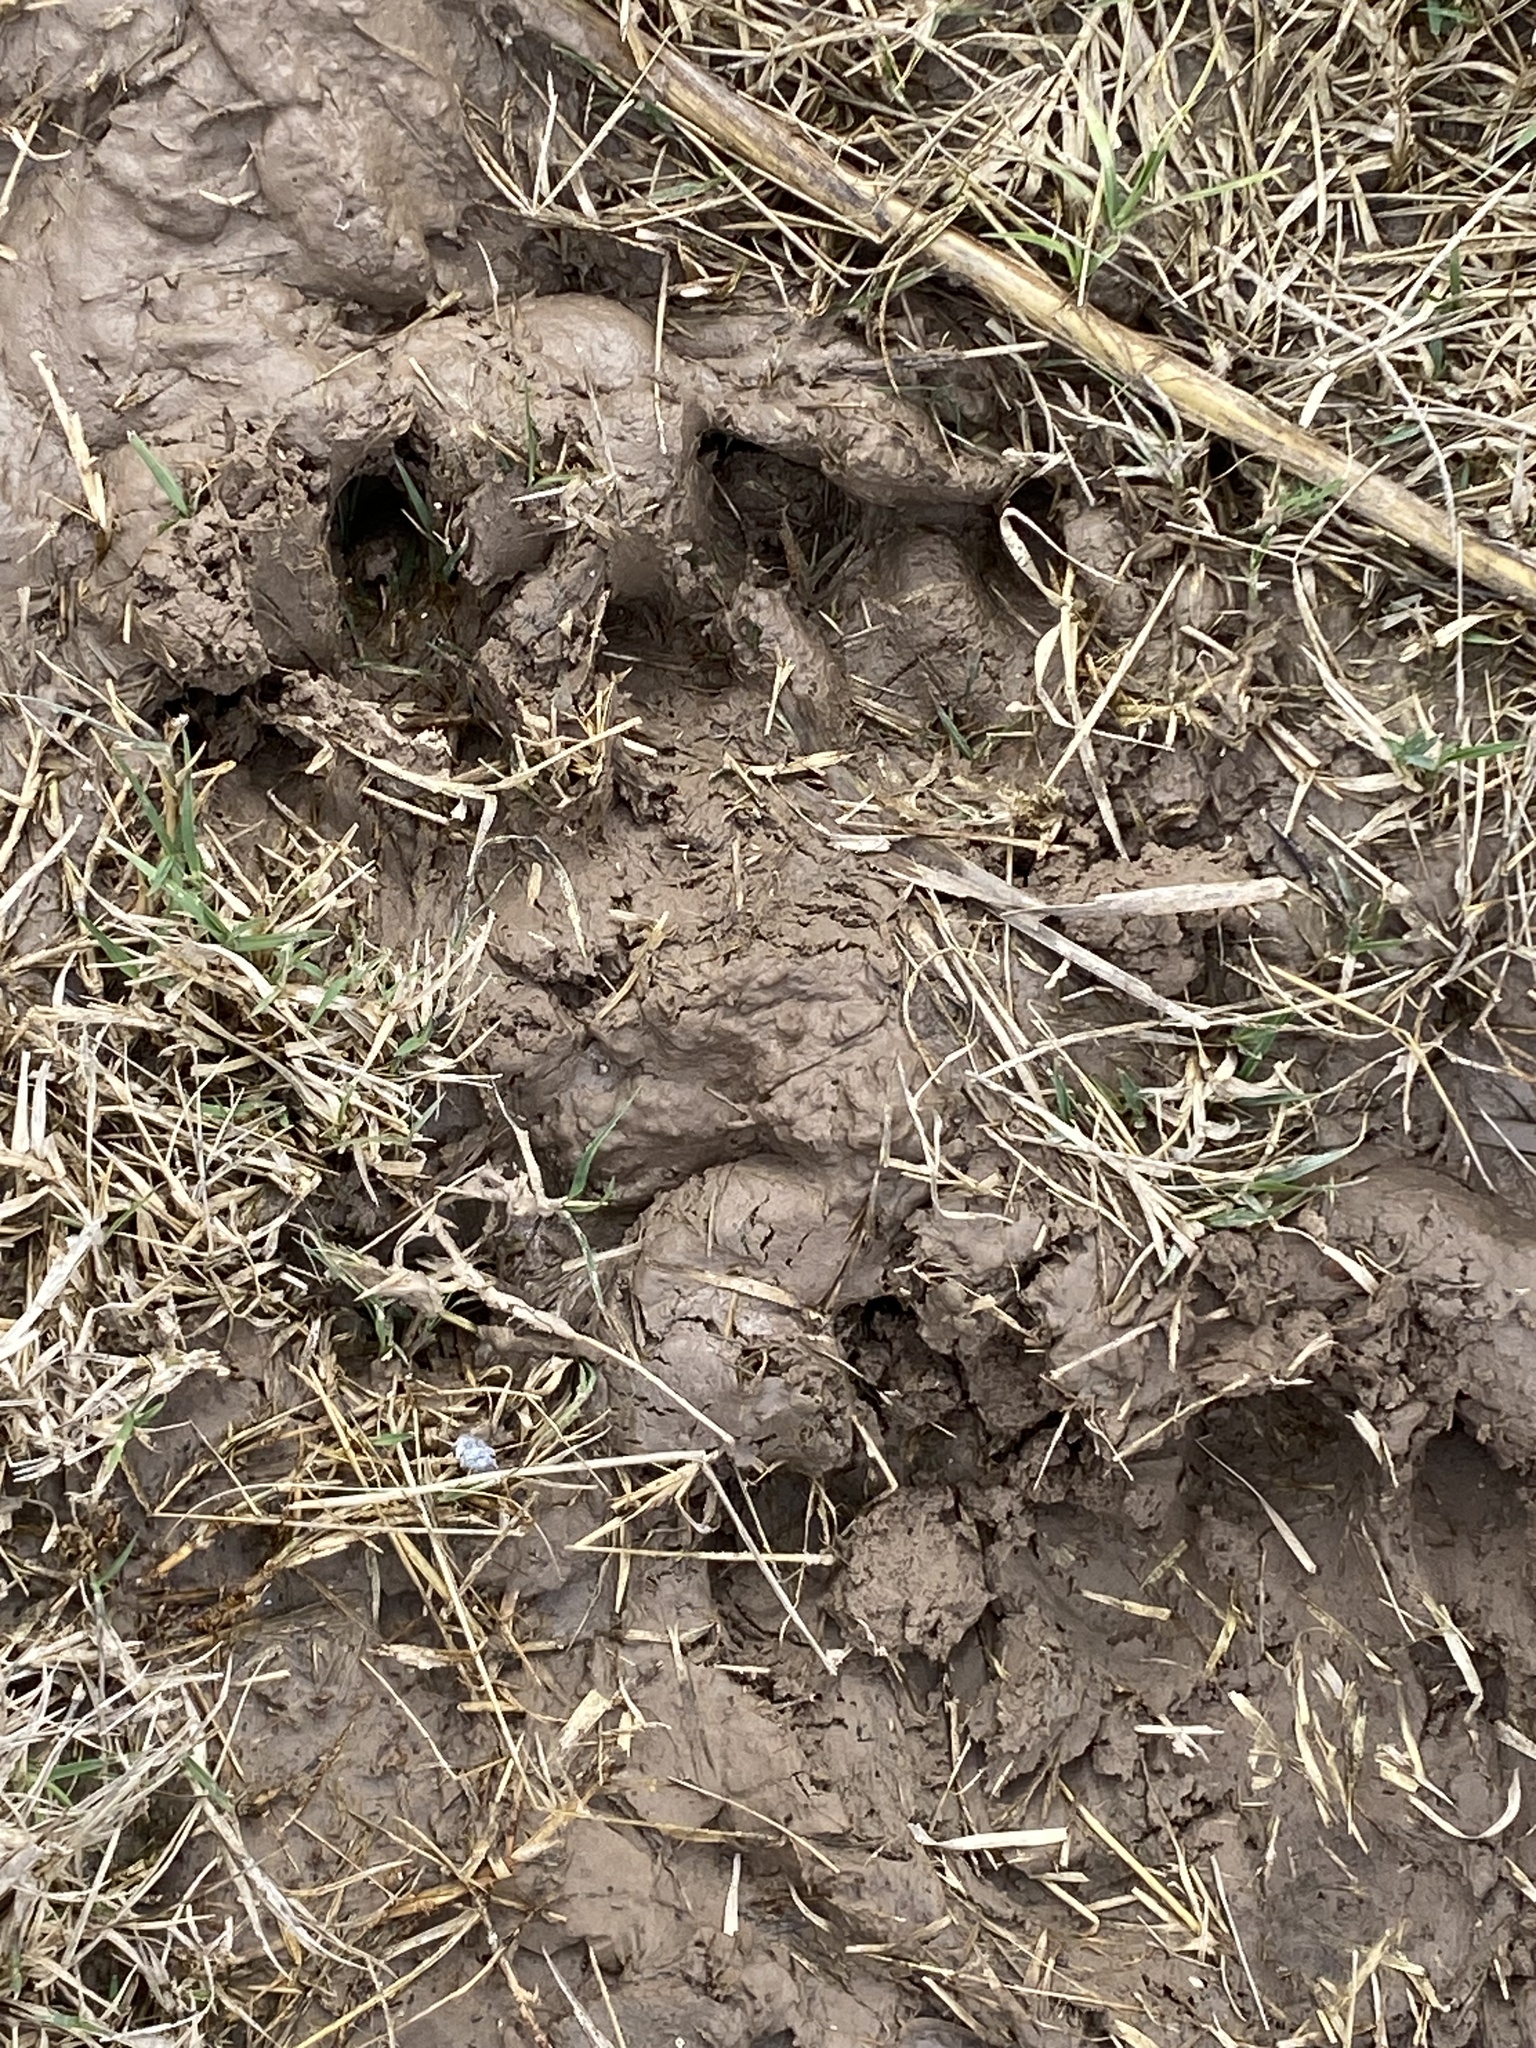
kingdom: Animalia
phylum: Chordata
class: Mammalia
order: Rodentia
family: Caviidae
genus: Hydrochoerus
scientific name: Hydrochoerus hydrochaeris
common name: Capybara
